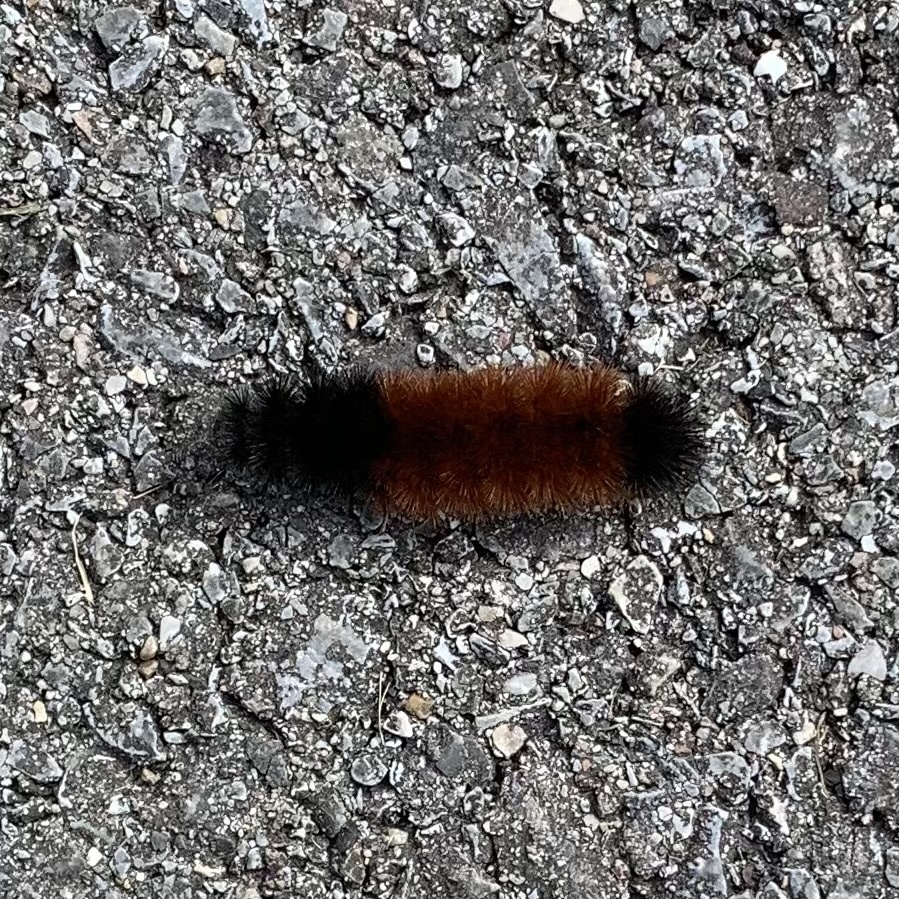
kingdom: Animalia
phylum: Arthropoda
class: Insecta
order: Lepidoptera
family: Erebidae
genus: Pyrrharctia
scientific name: Pyrrharctia isabella
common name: Isabella tiger moth
